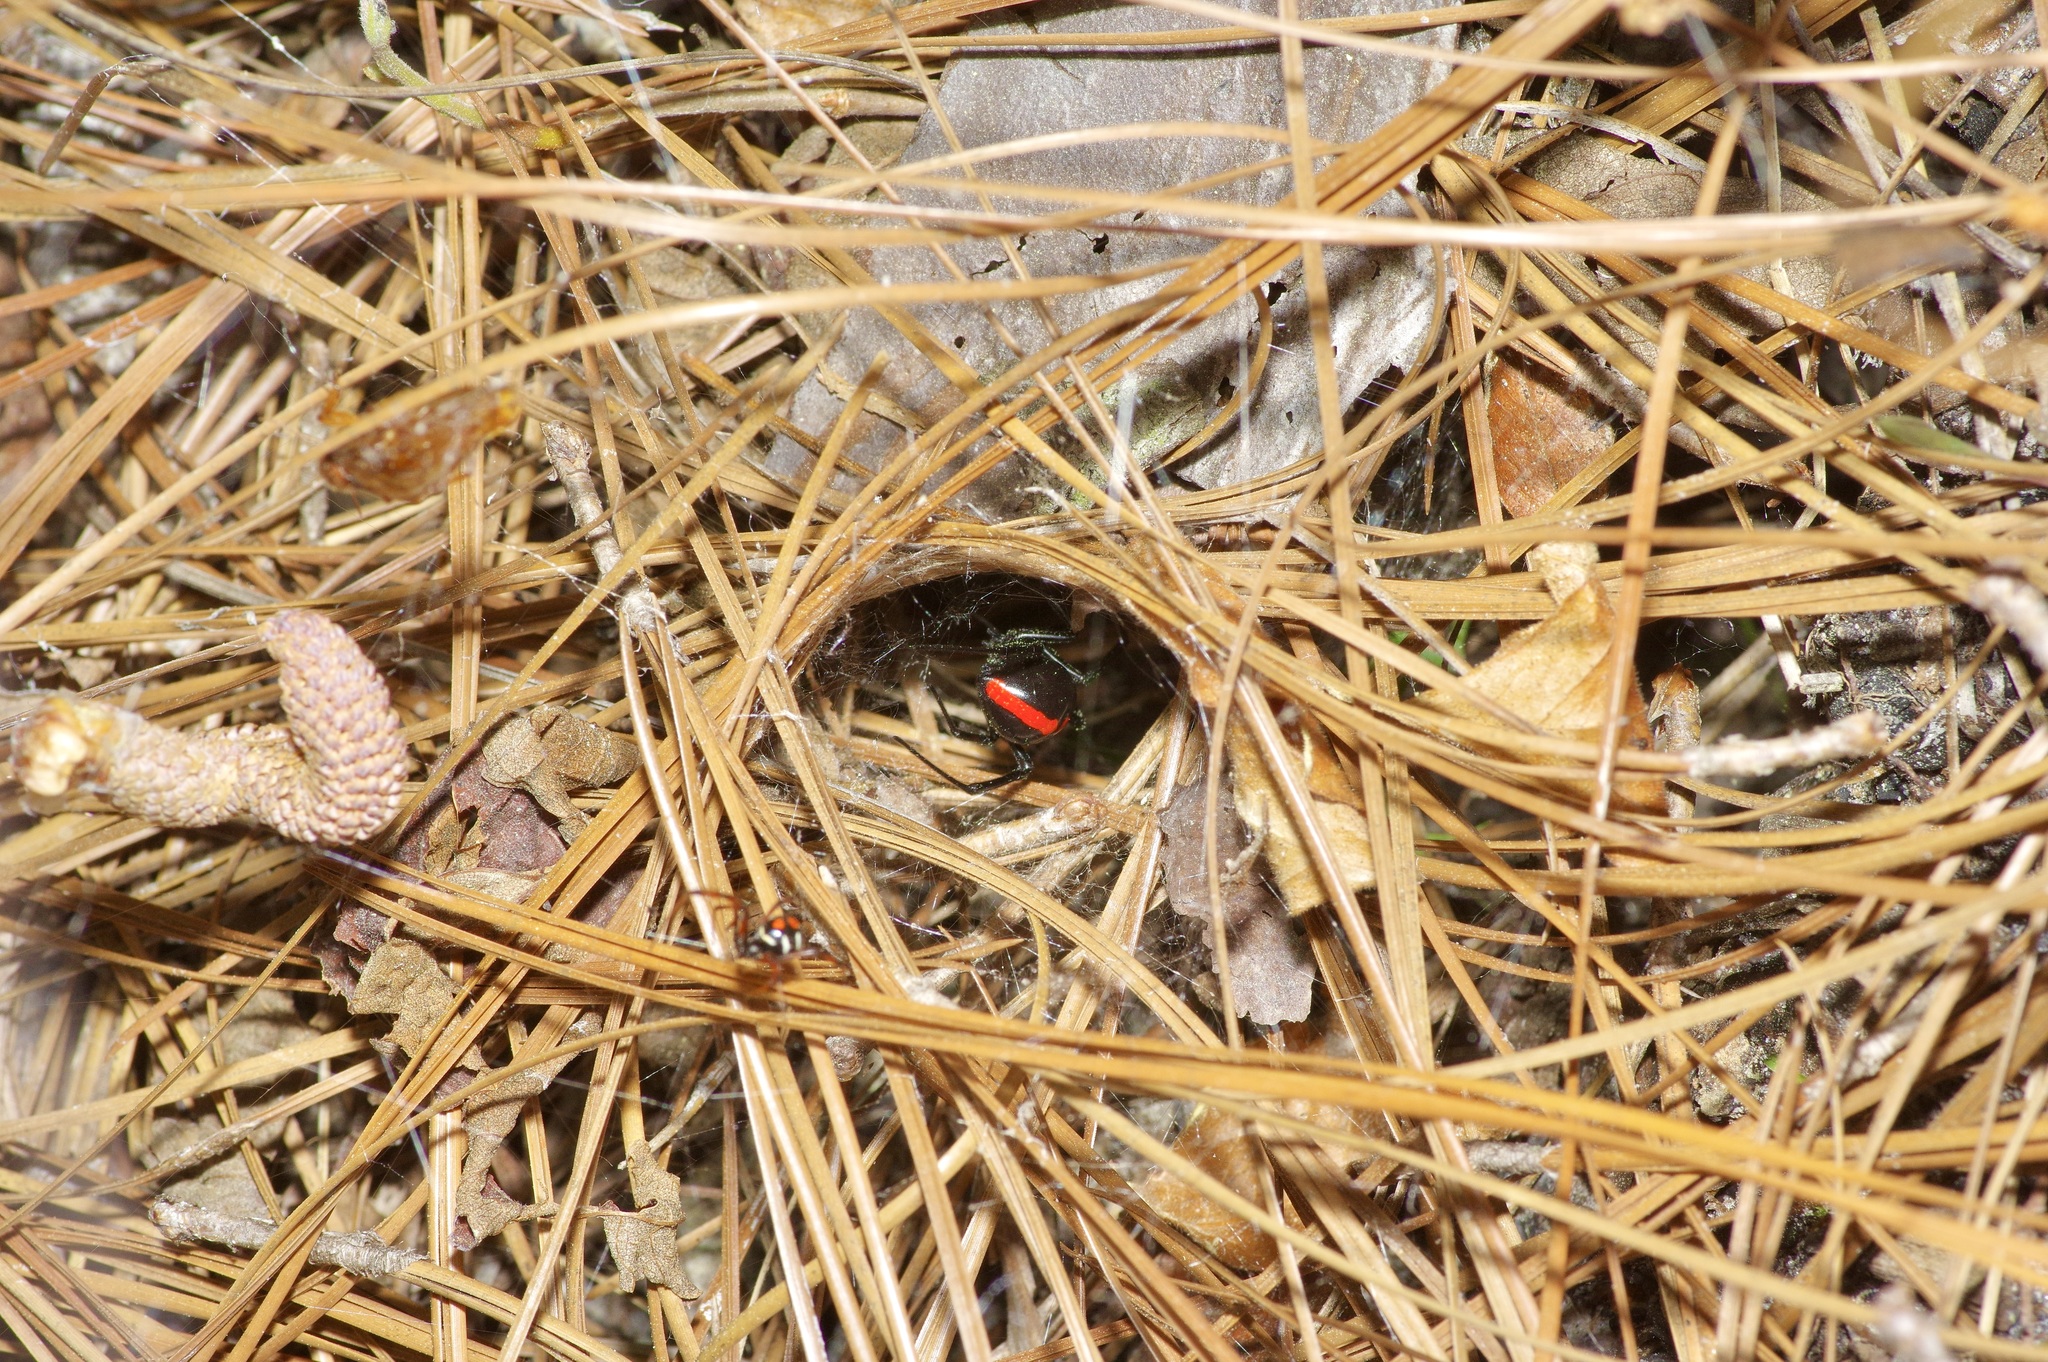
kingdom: Animalia
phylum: Arthropoda
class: Arachnida
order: Araneae
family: Theridiidae
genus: Latrodectus
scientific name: Latrodectus mactans
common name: Cobweb spiders
